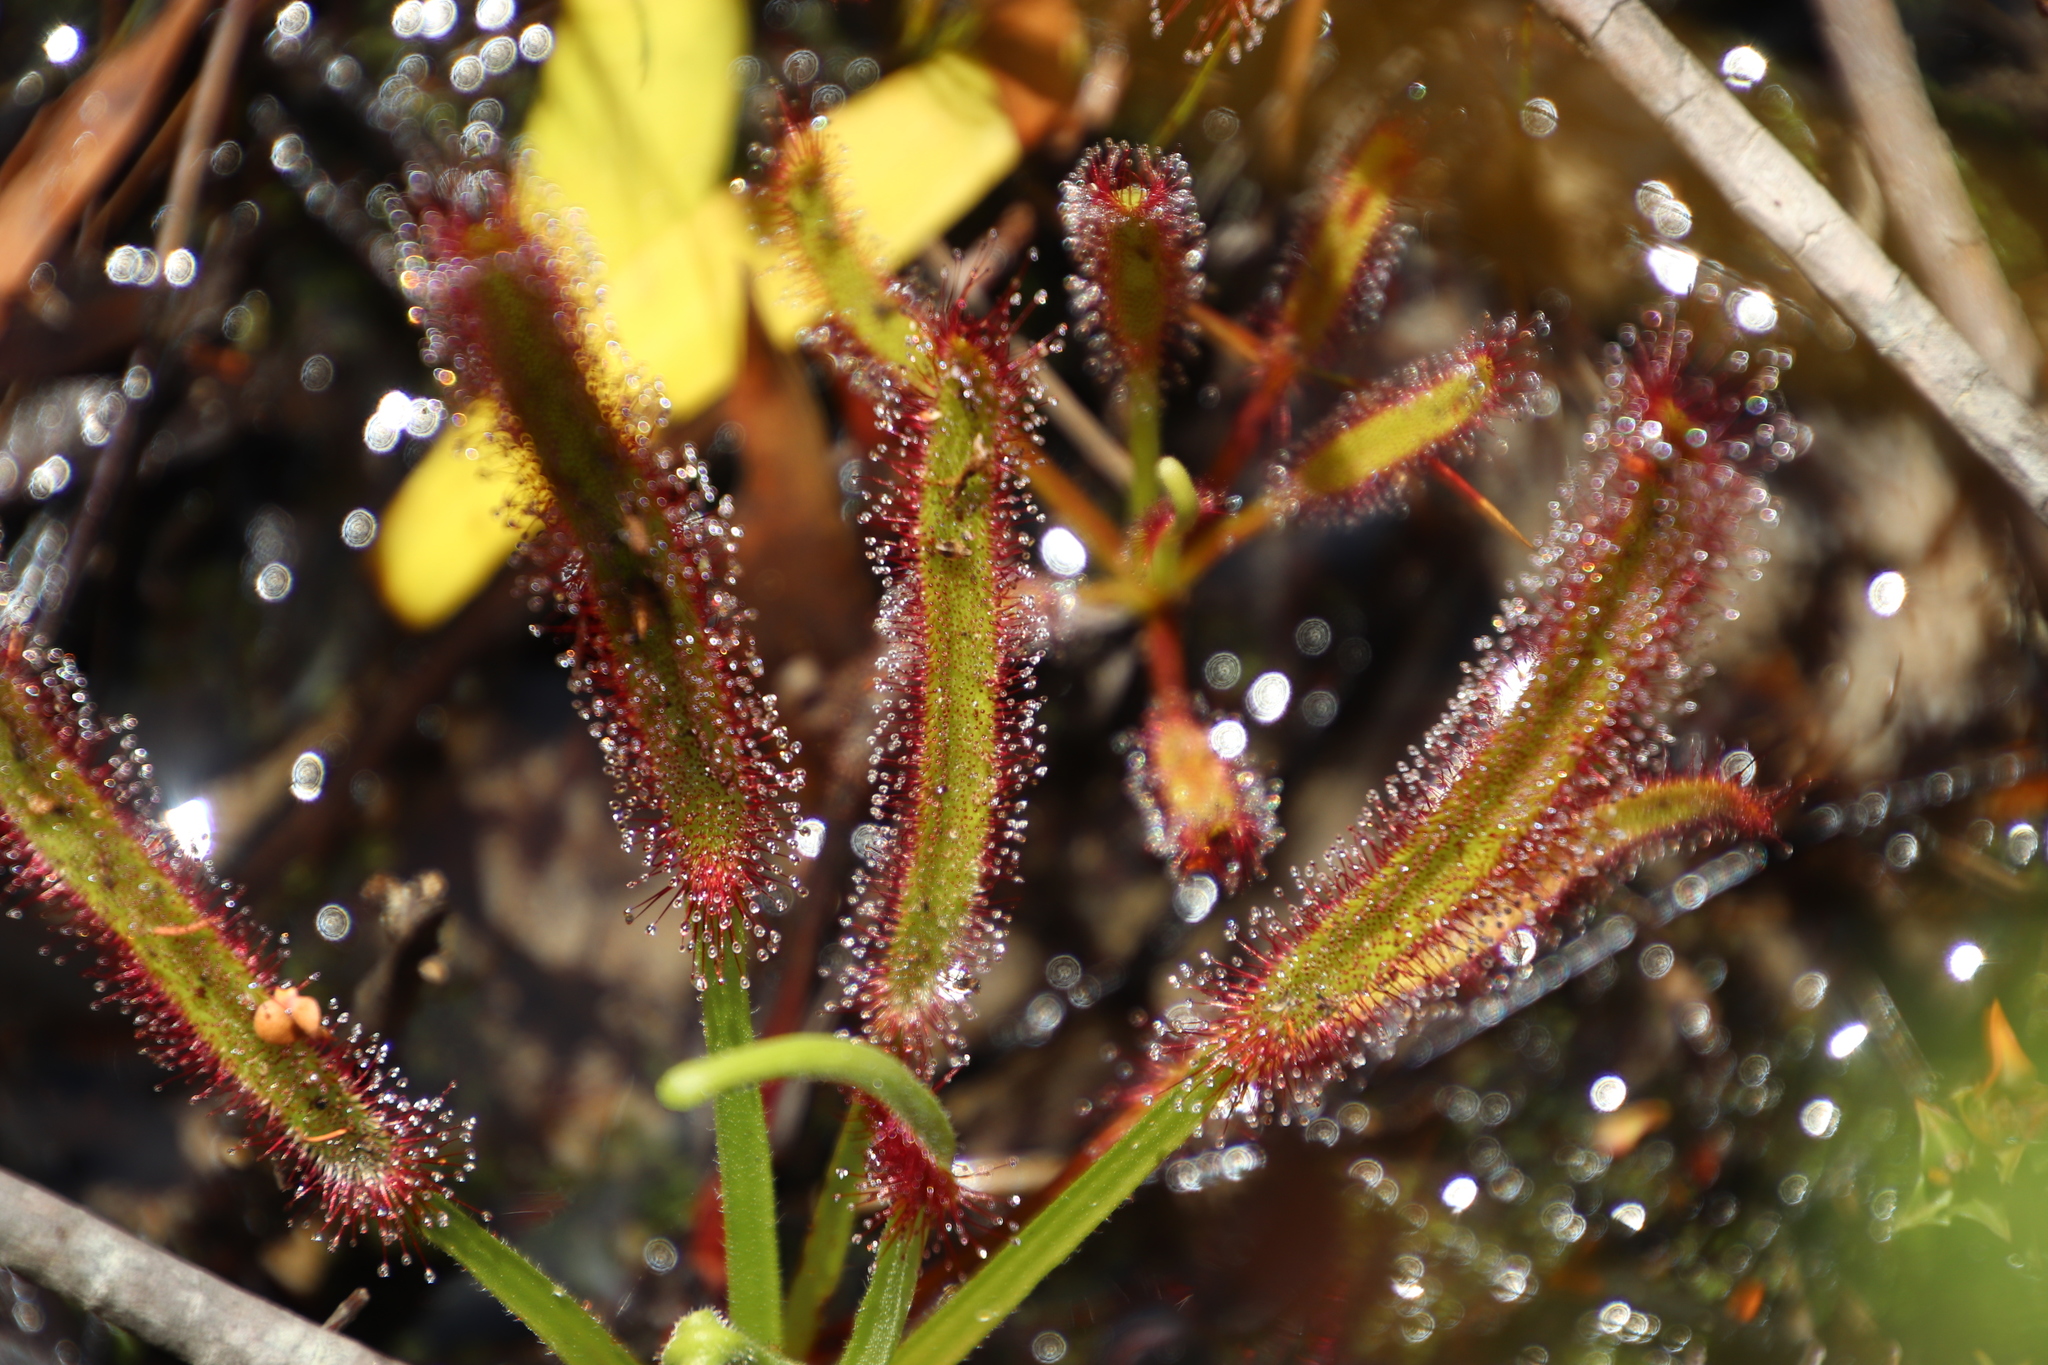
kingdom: Plantae
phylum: Tracheophyta
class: Magnoliopsida
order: Caryophyllales
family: Droseraceae
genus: Drosera
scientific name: Drosera capensis
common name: Cape sundew
